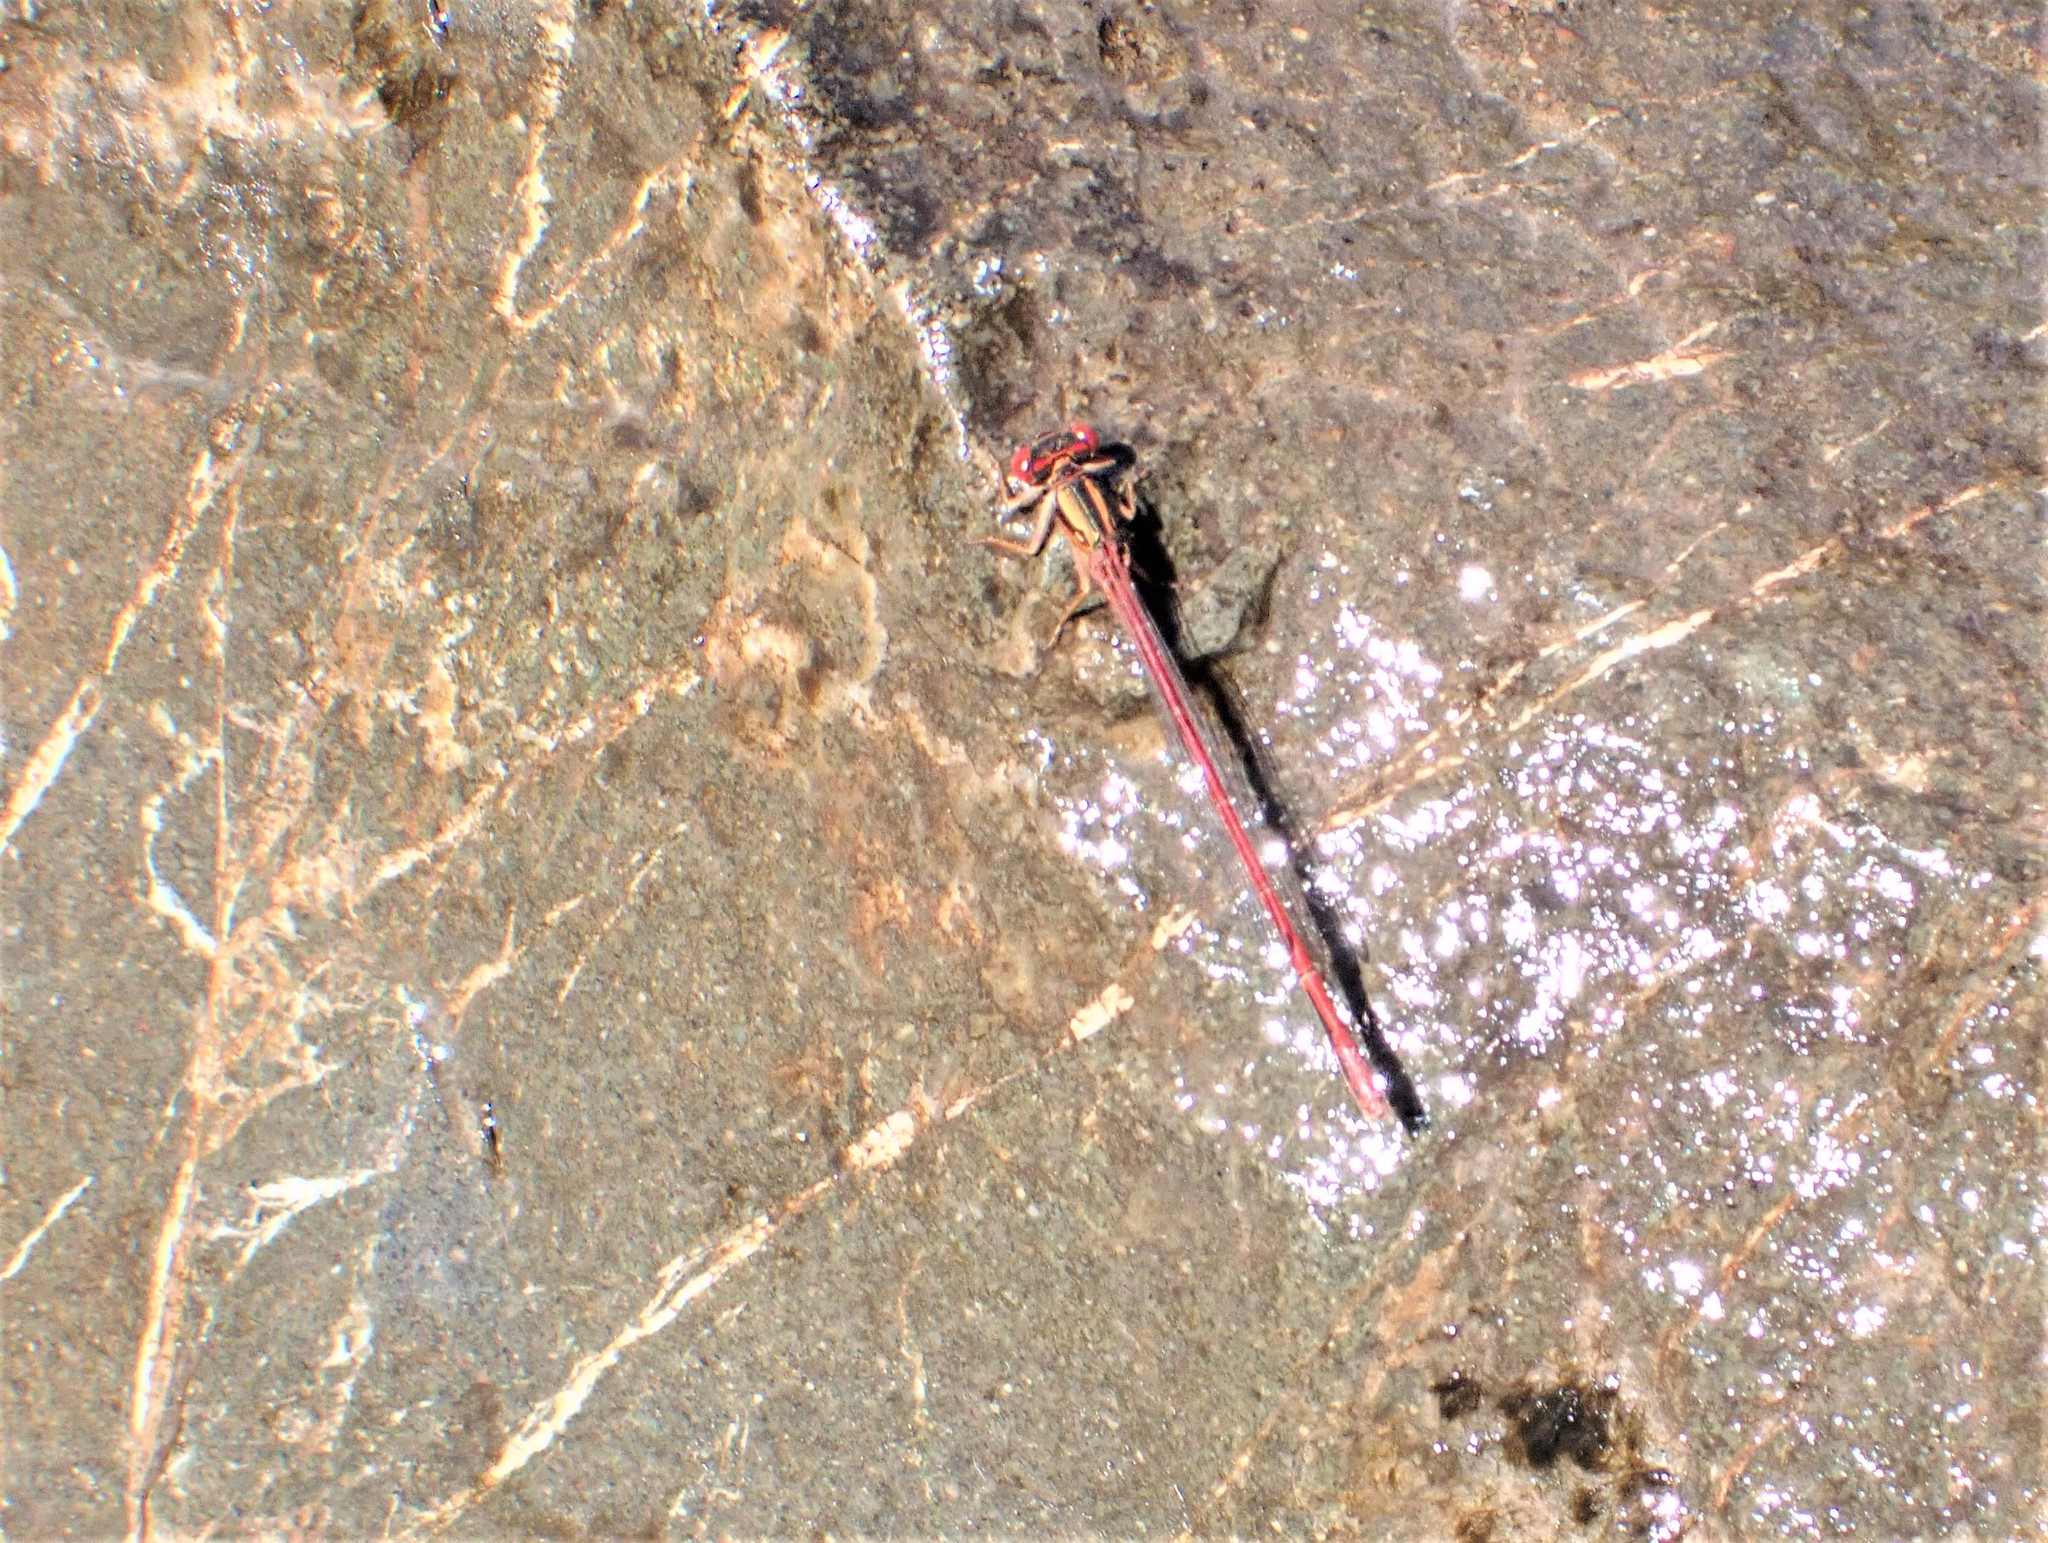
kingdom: Animalia
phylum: Arthropoda
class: Insecta
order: Odonata
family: Coenagrionidae
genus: Xanthocnemis
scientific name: Xanthocnemis zealandica
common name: Common redcoat damselfly
